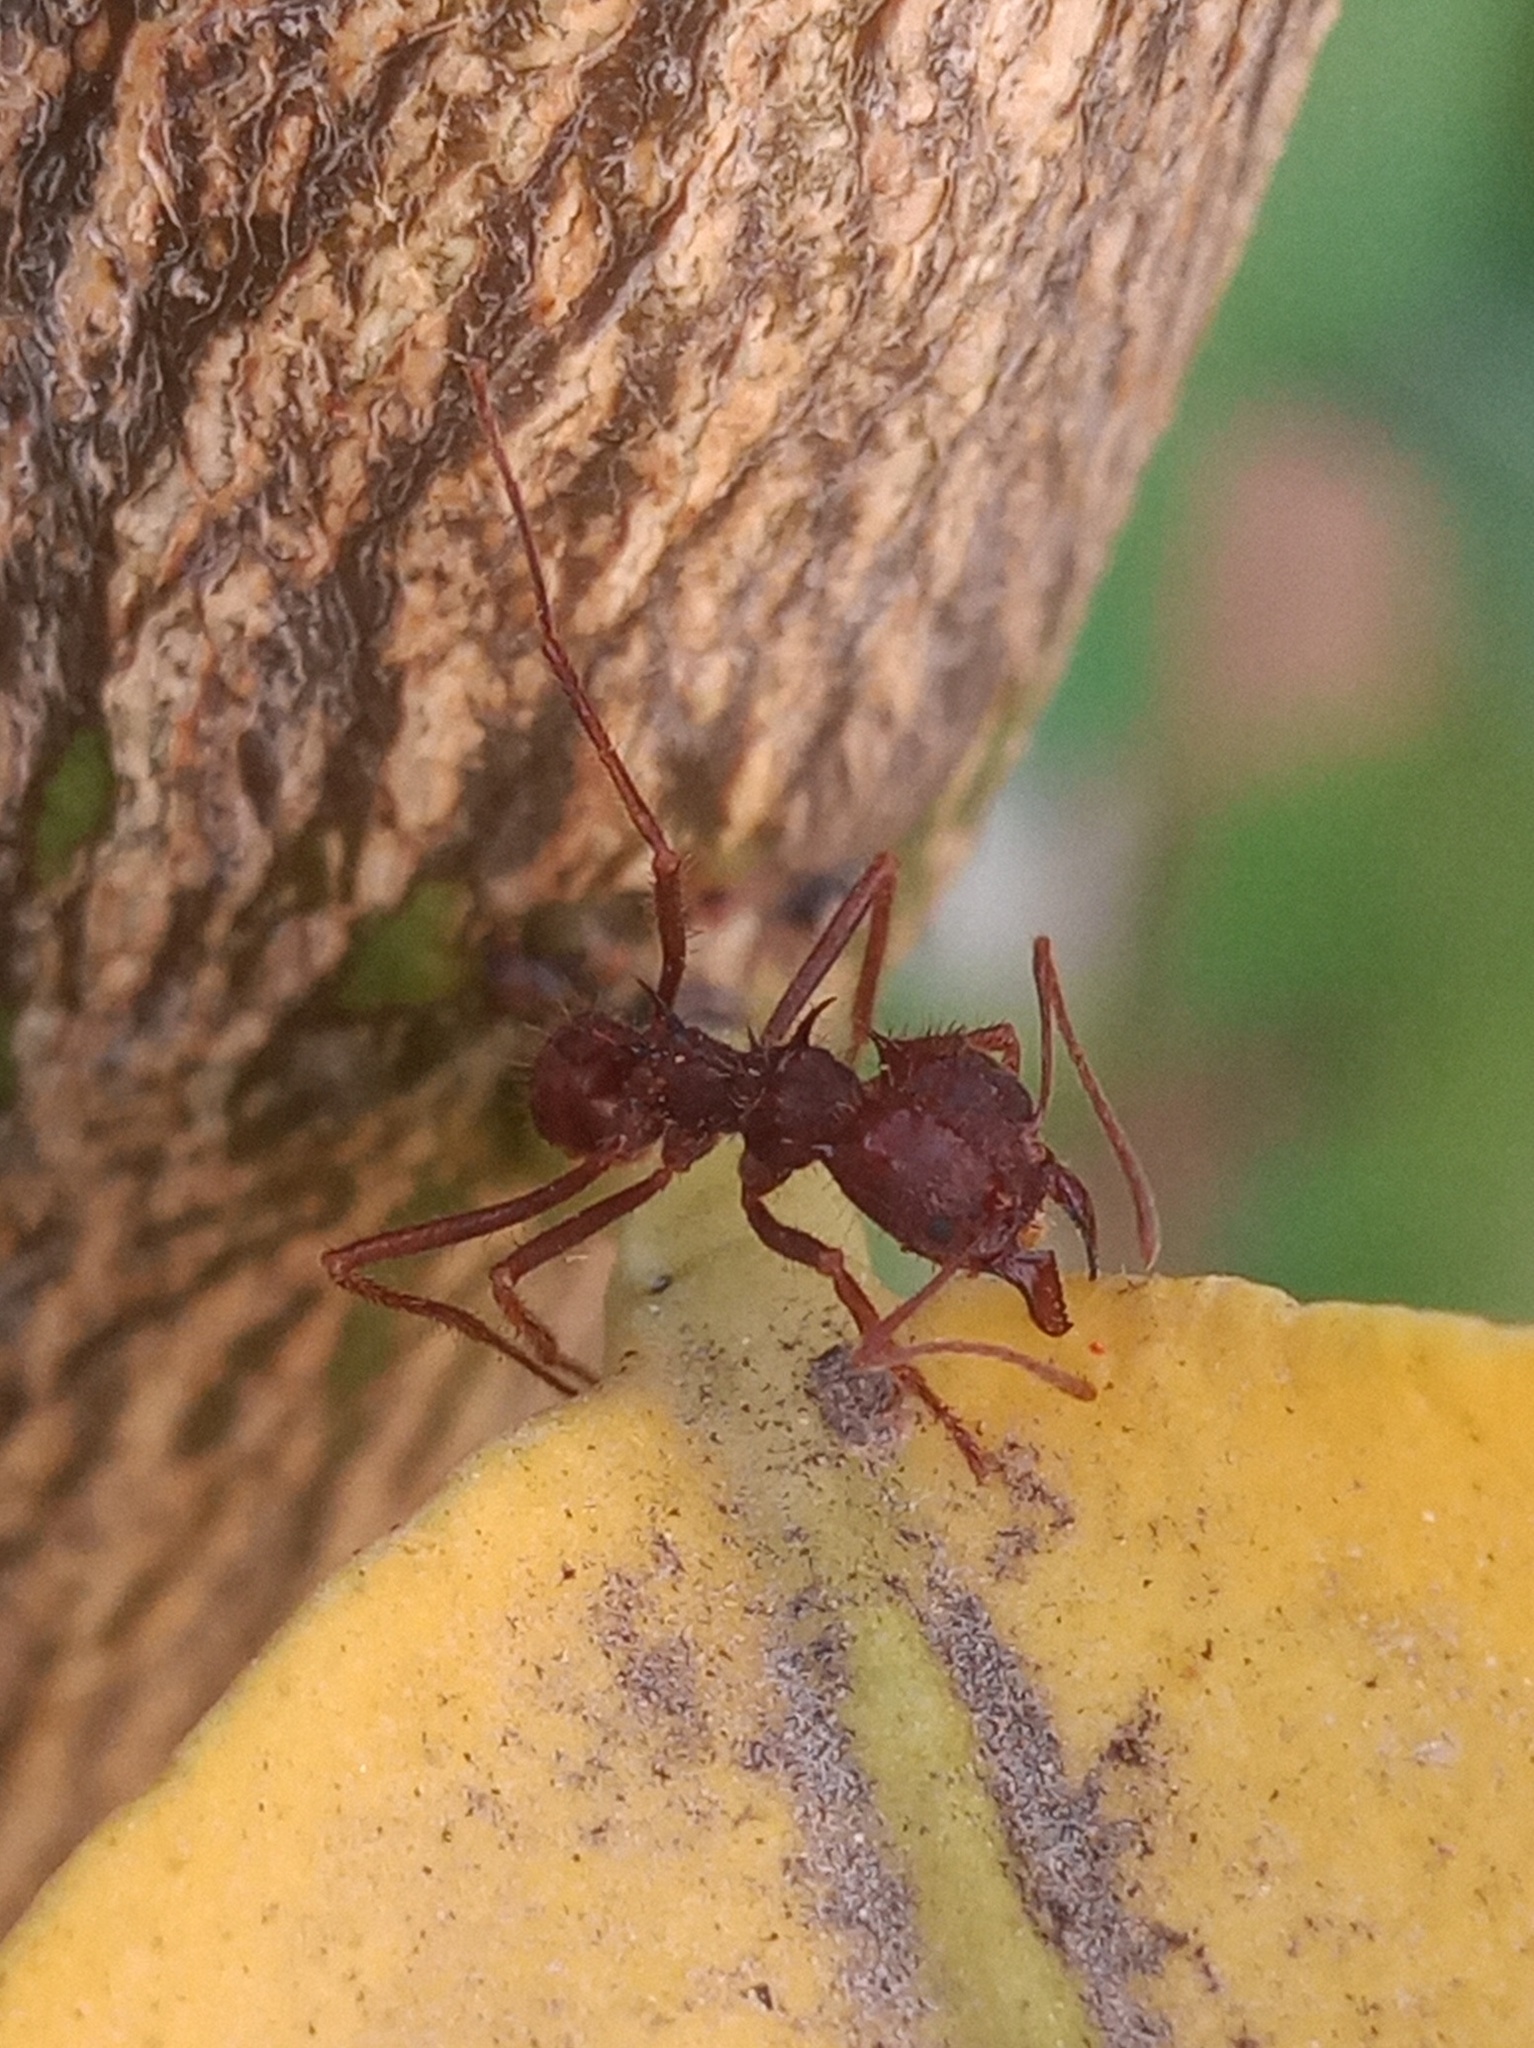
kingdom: Animalia
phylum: Arthropoda
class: Insecta
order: Hymenoptera
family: Formicidae
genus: Atta
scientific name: Atta mexicana
